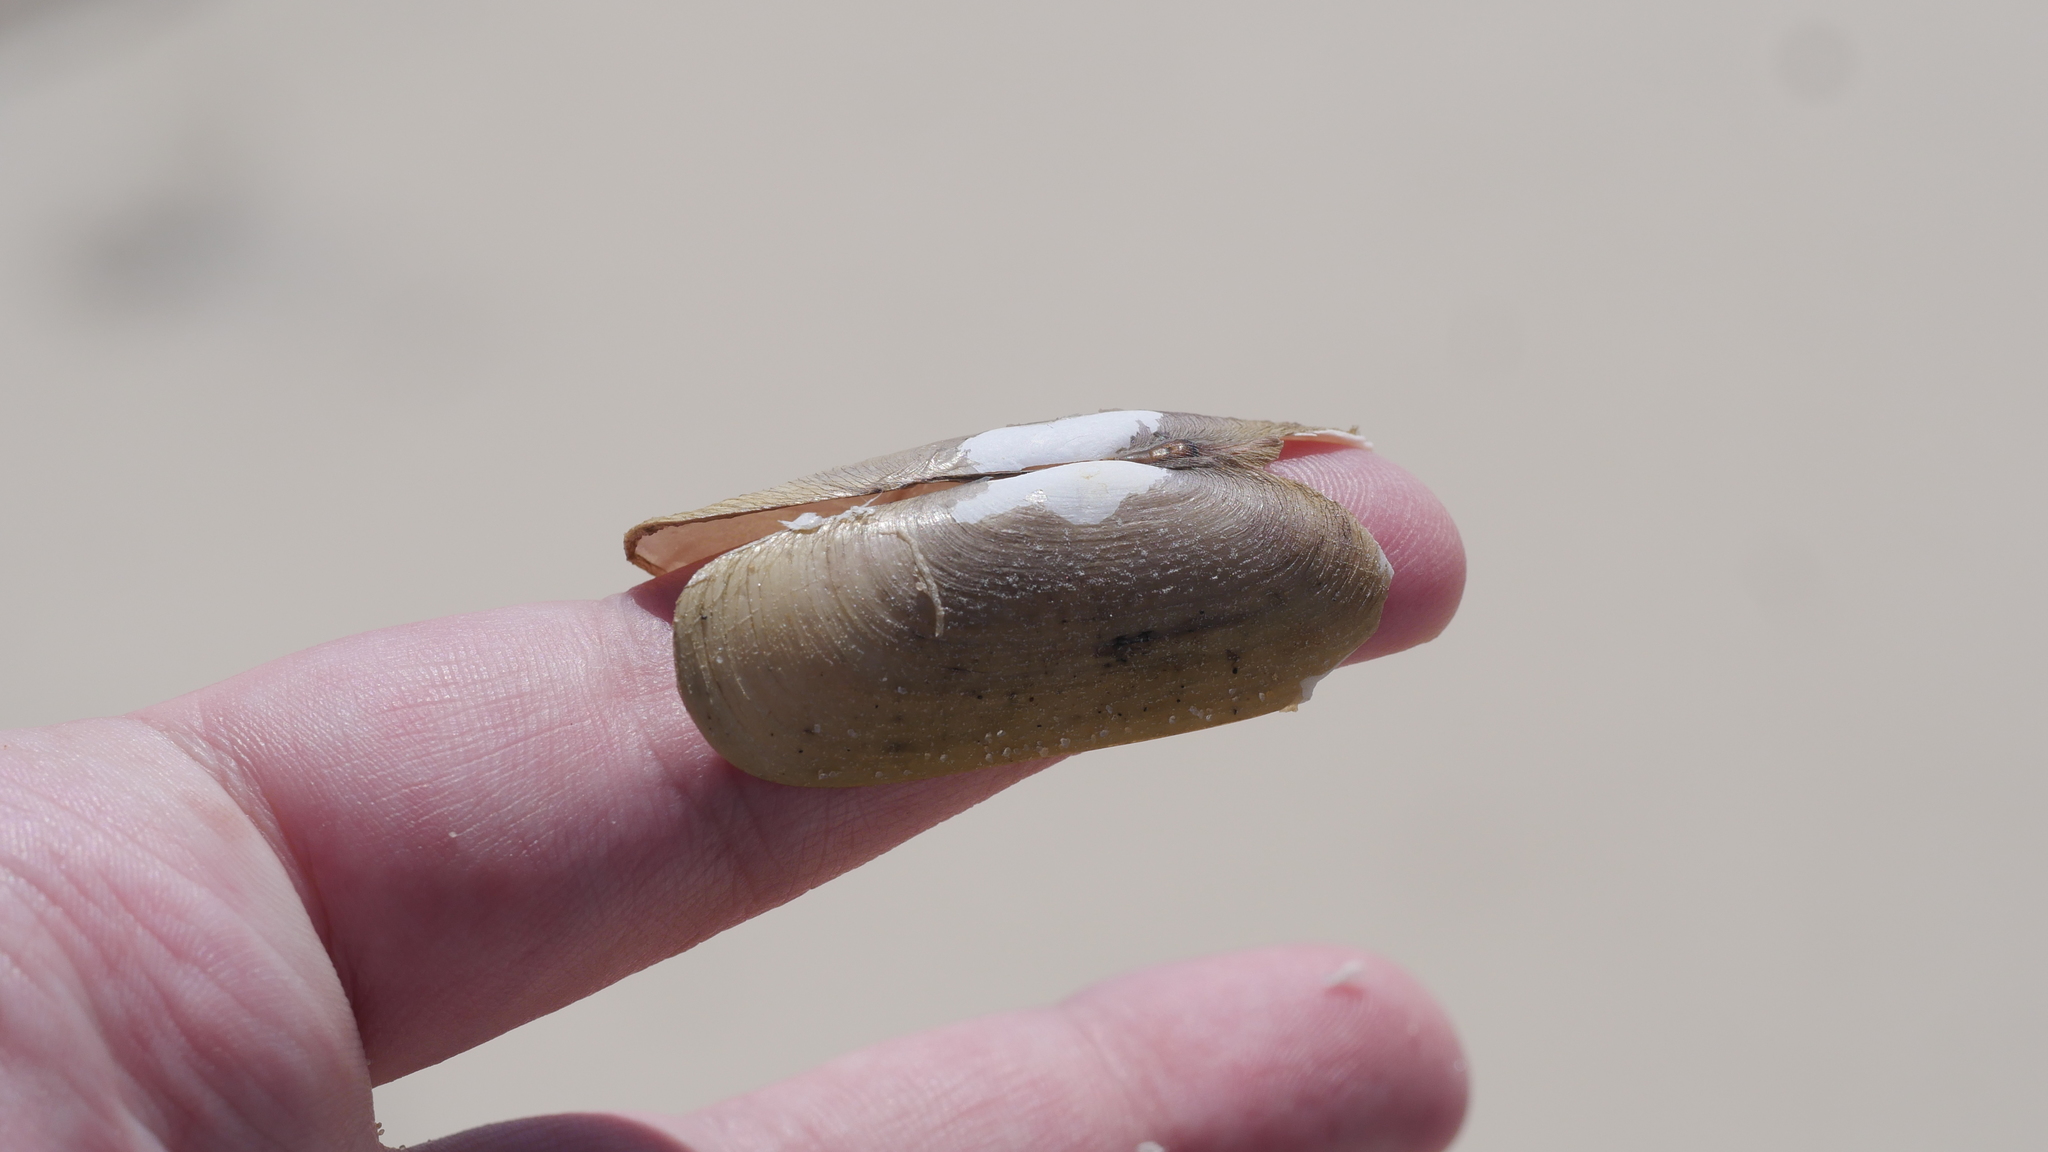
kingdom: Animalia
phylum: Mollusca
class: Bivalvia
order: Cardiida
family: Solecurtidae
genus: Tagelus
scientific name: Tagelus plebeius
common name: Stout tagelus
